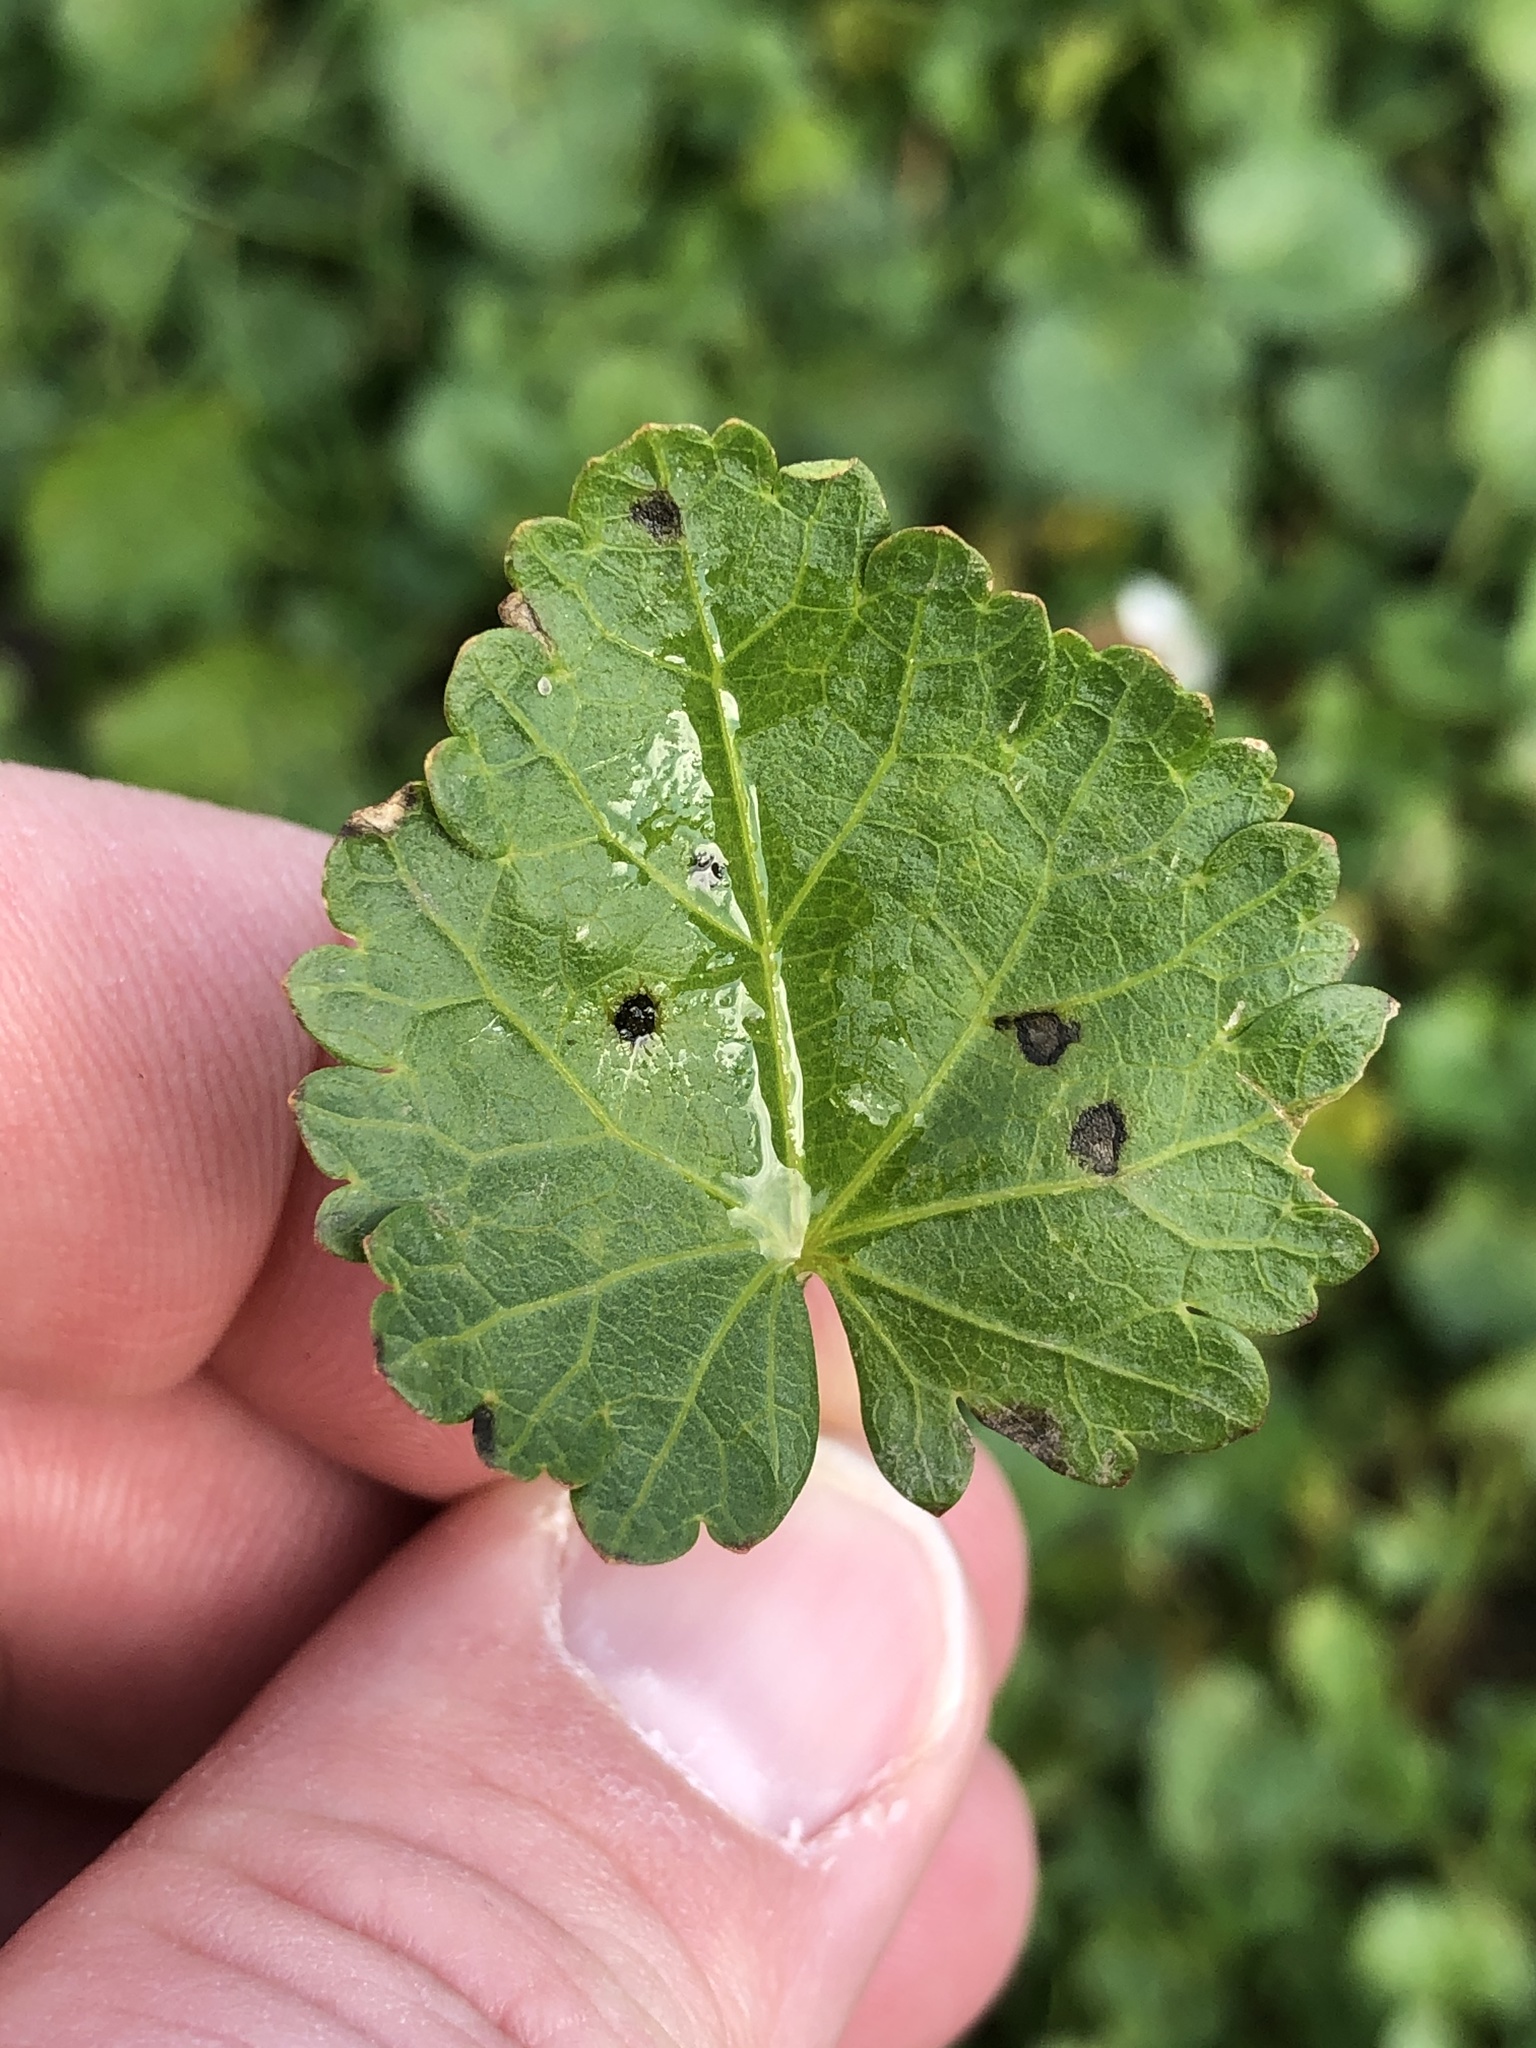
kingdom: Plantae
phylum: Tracheophyta
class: Magnoliopsida
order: Malvales
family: Malvaceae
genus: Modiola
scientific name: Modiola caroliniana
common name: Carolina bristlemallow
